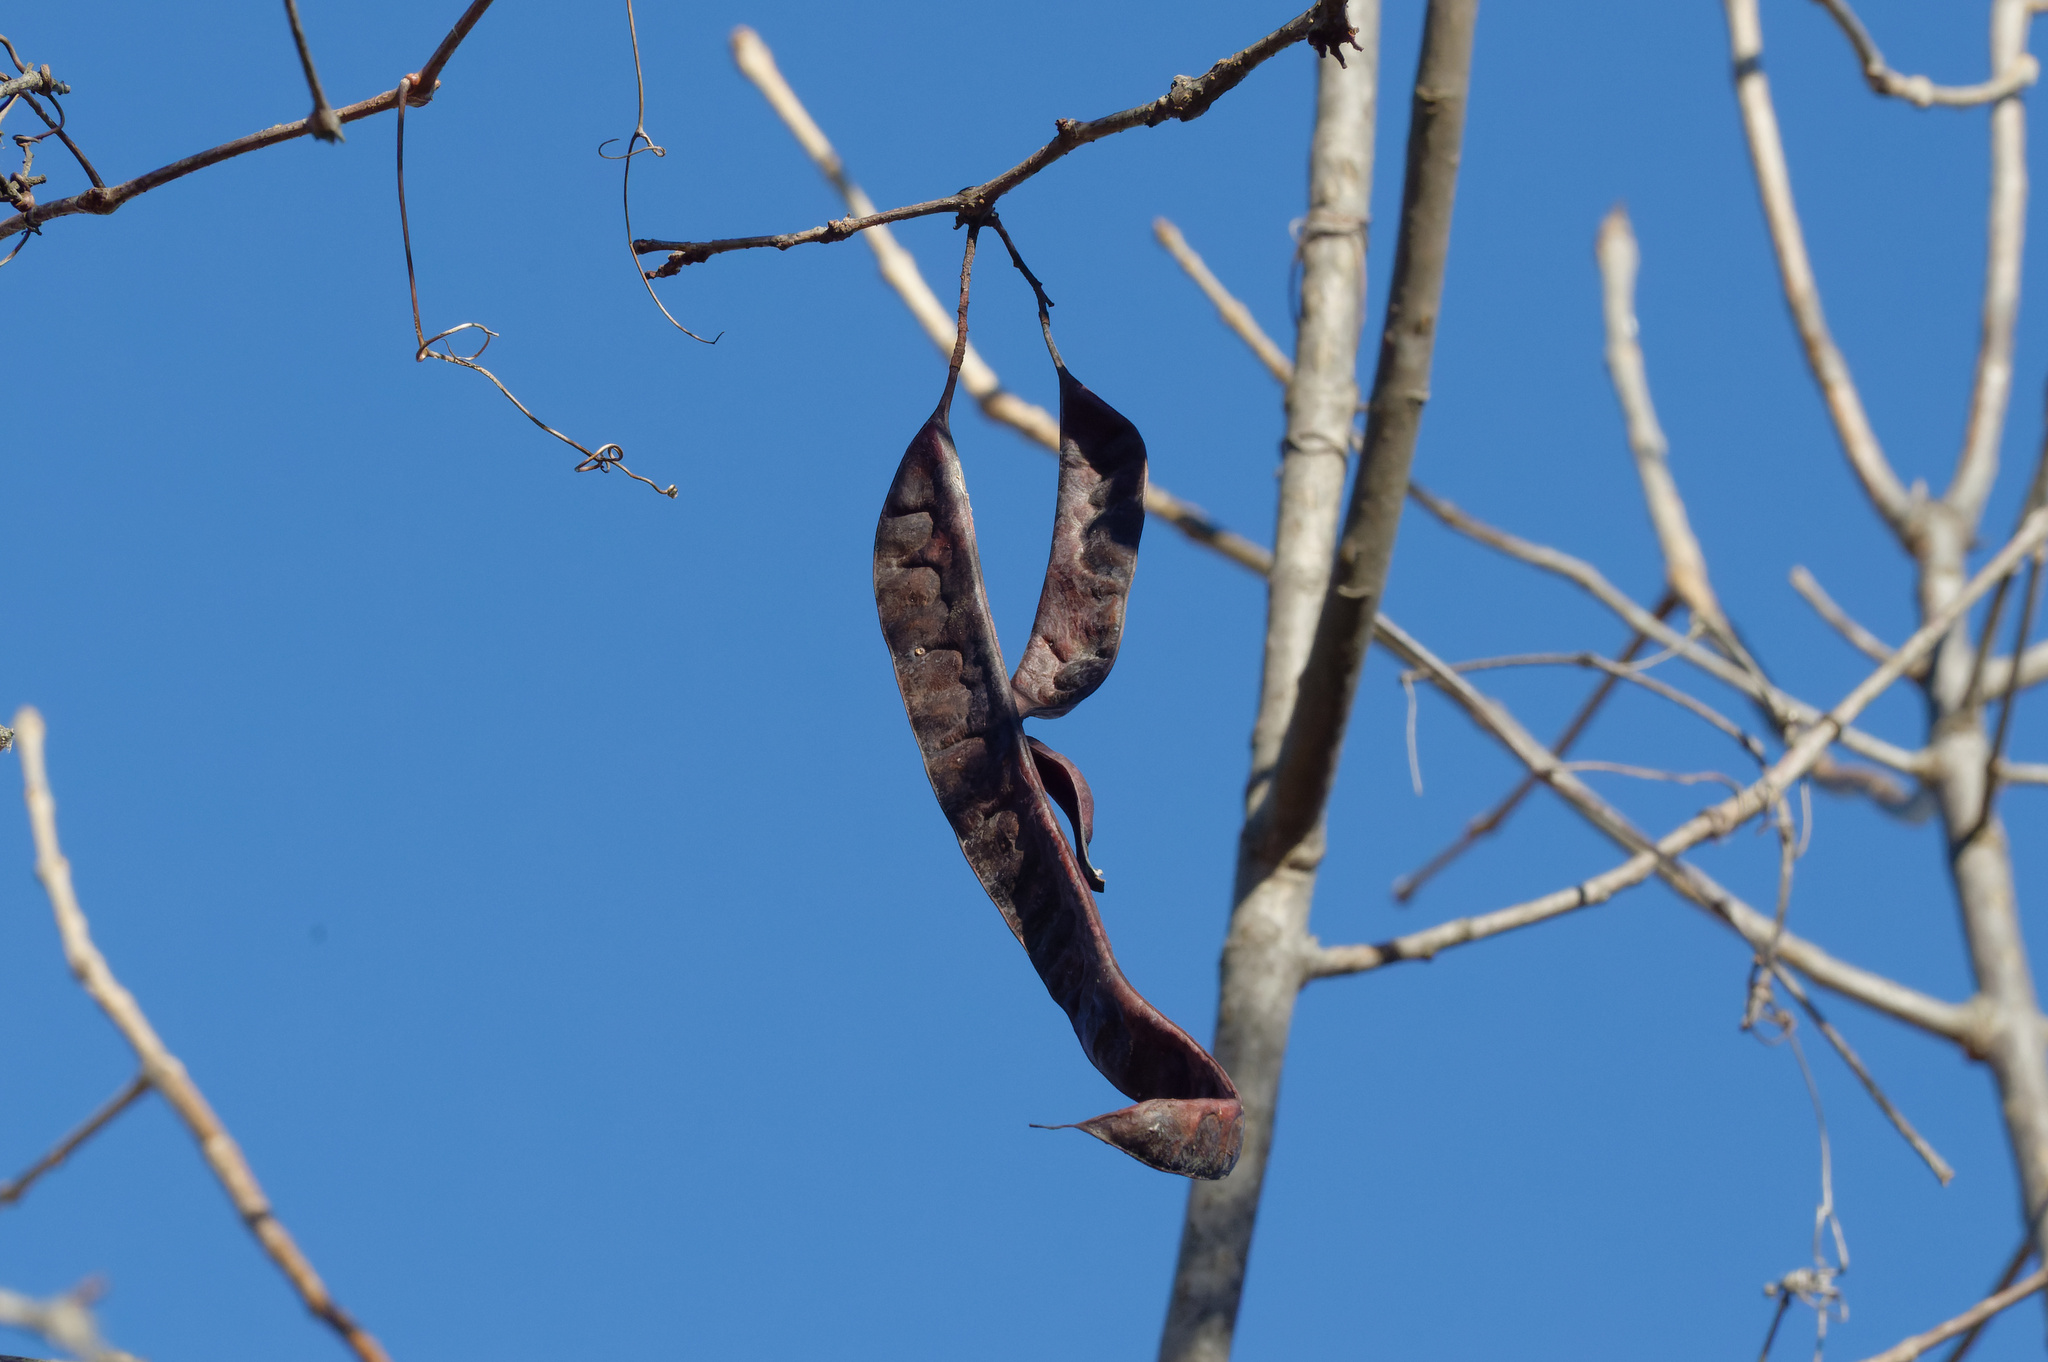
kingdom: Plantae
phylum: Tracheophyta
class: Magnoliopsida
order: Fabales
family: Fabaceae
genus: Gleditsia
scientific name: Gleditsia triacanthos
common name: Common honeylocust
